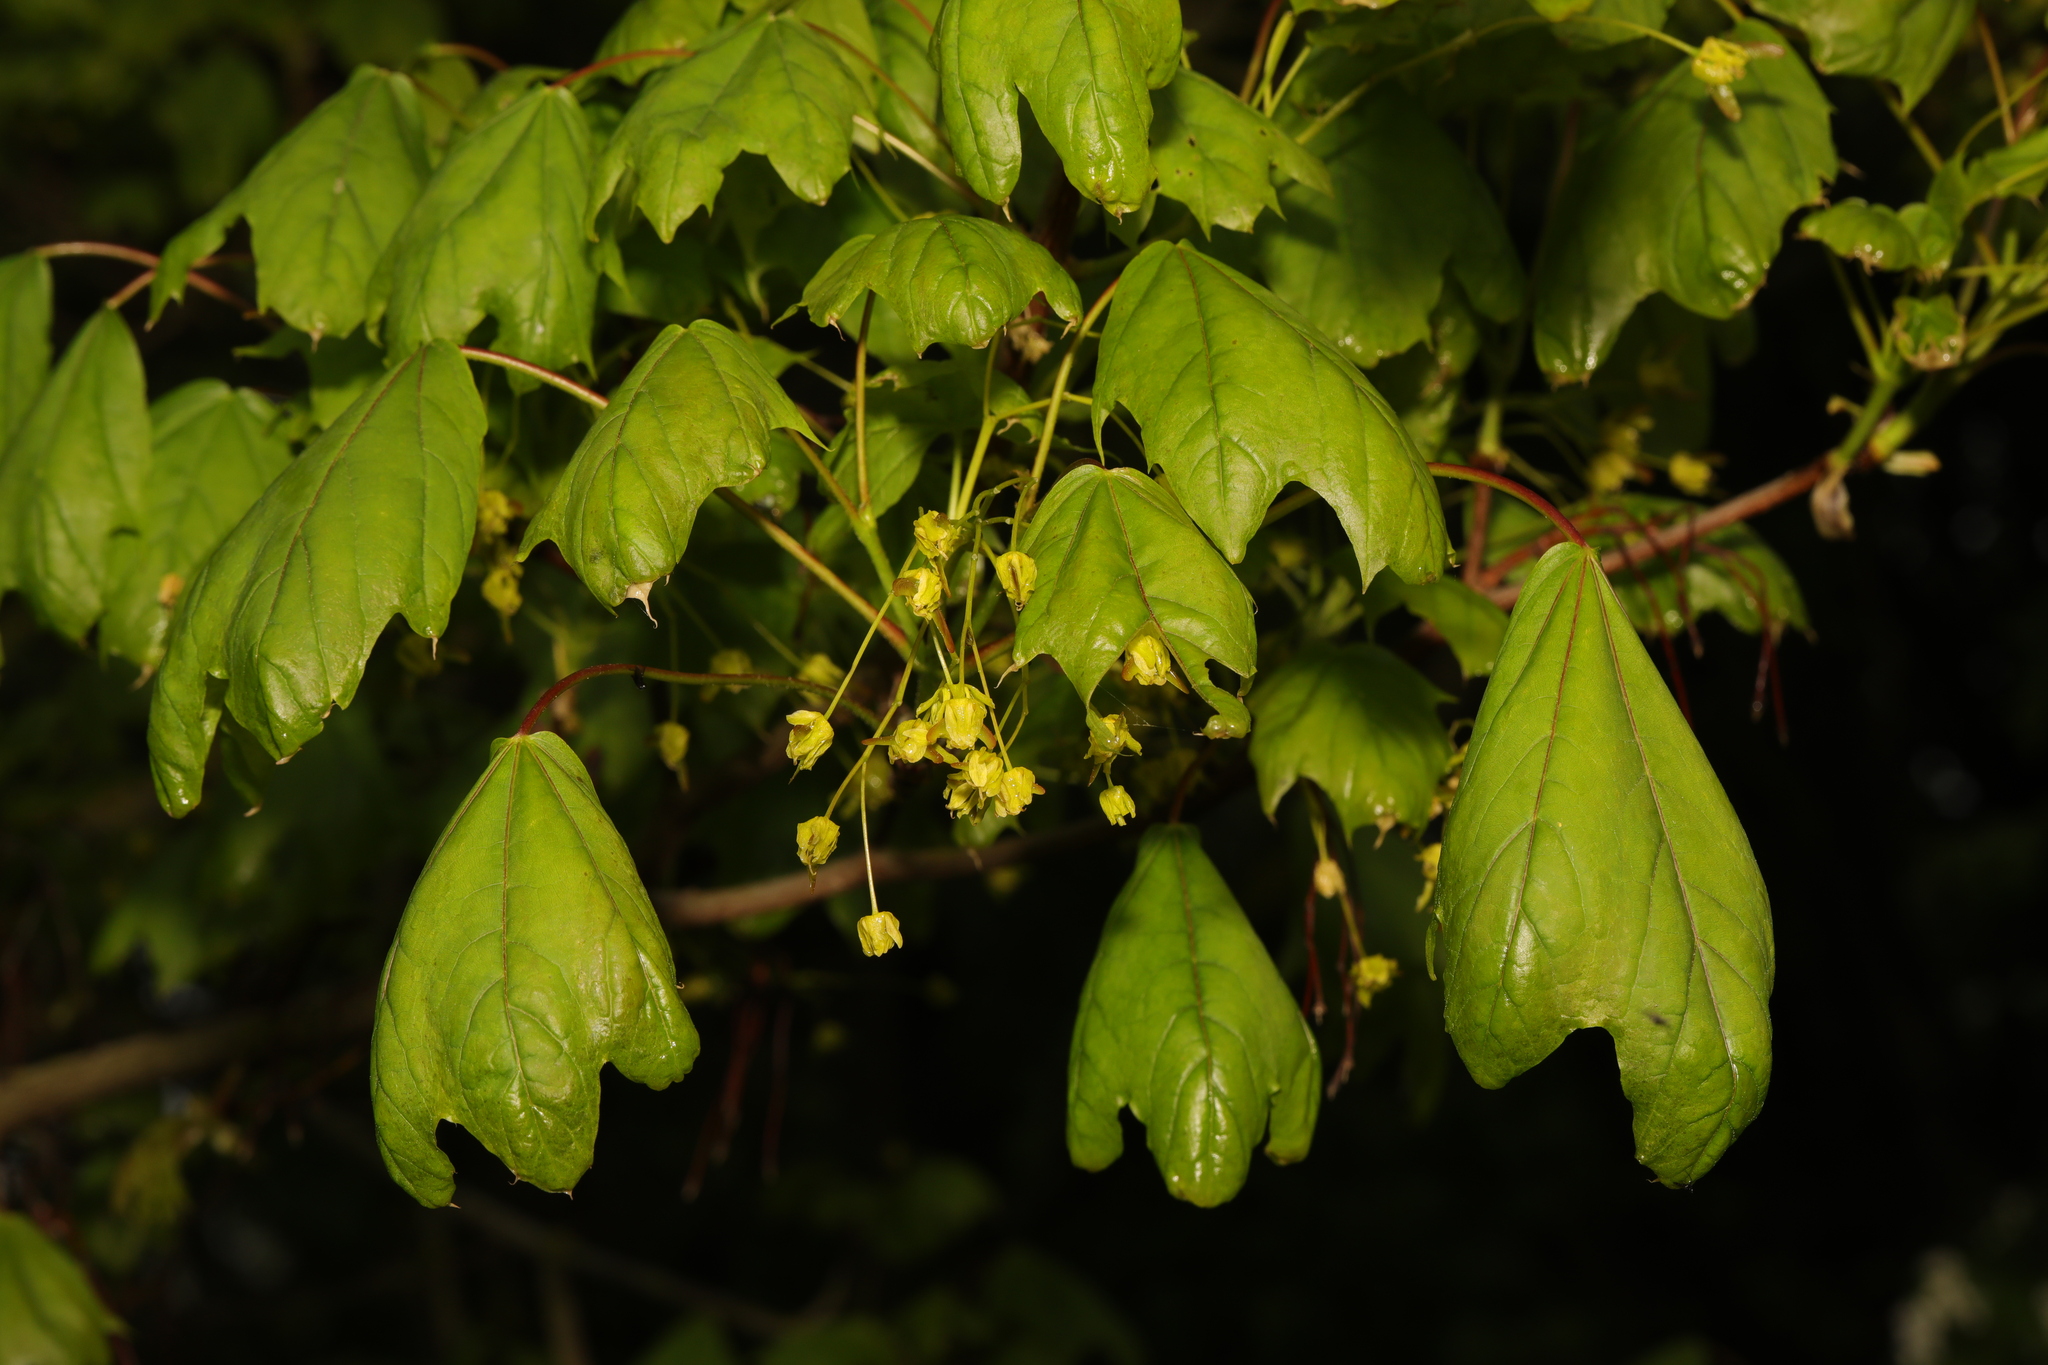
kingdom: Plantae
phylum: Tracheophyta
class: Magnoliopsida
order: Sapindales
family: Sapindaceae
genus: Acer
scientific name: Acer campestre
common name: Field maple
